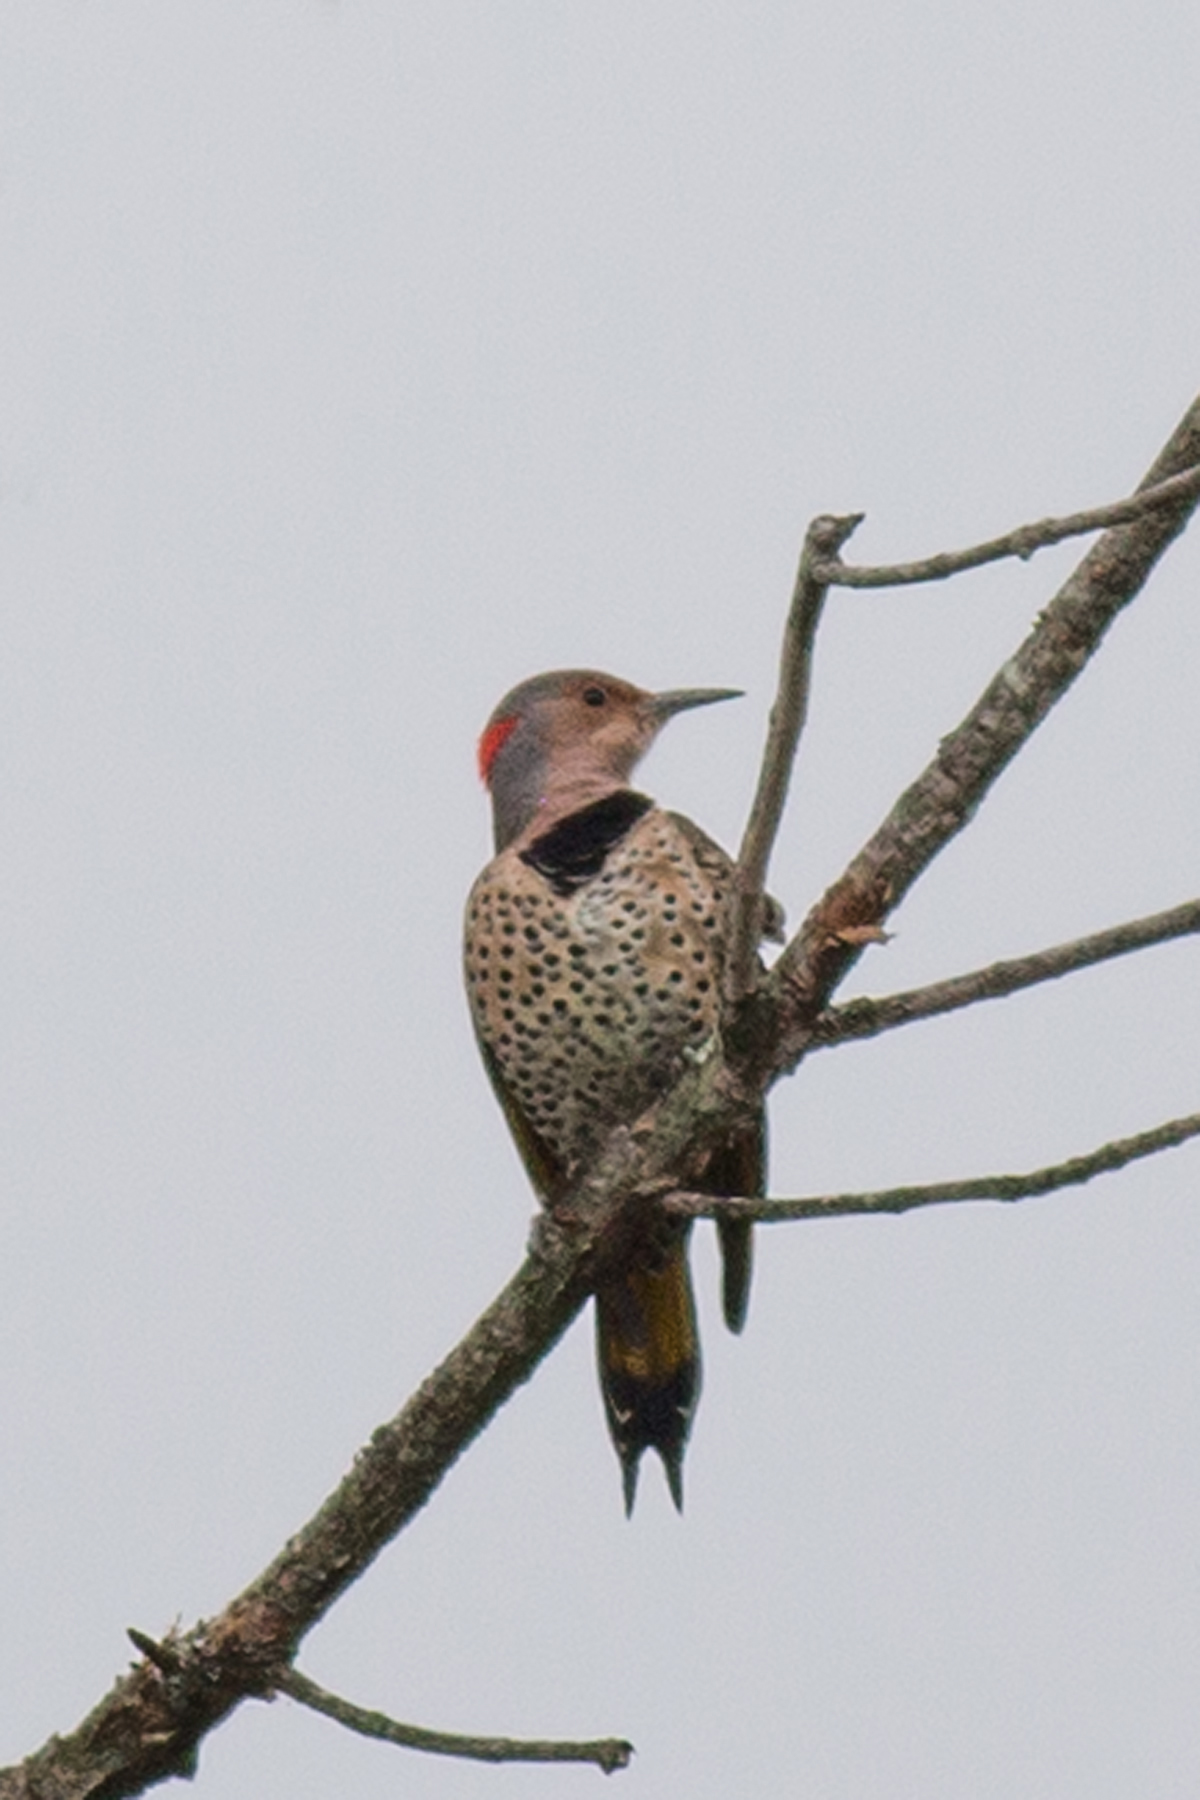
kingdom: Animalia
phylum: Chordata
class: Aves
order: Piciformes
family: Picidae
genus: Colaptes
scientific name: Colaptes auratus
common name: Northern flicker
